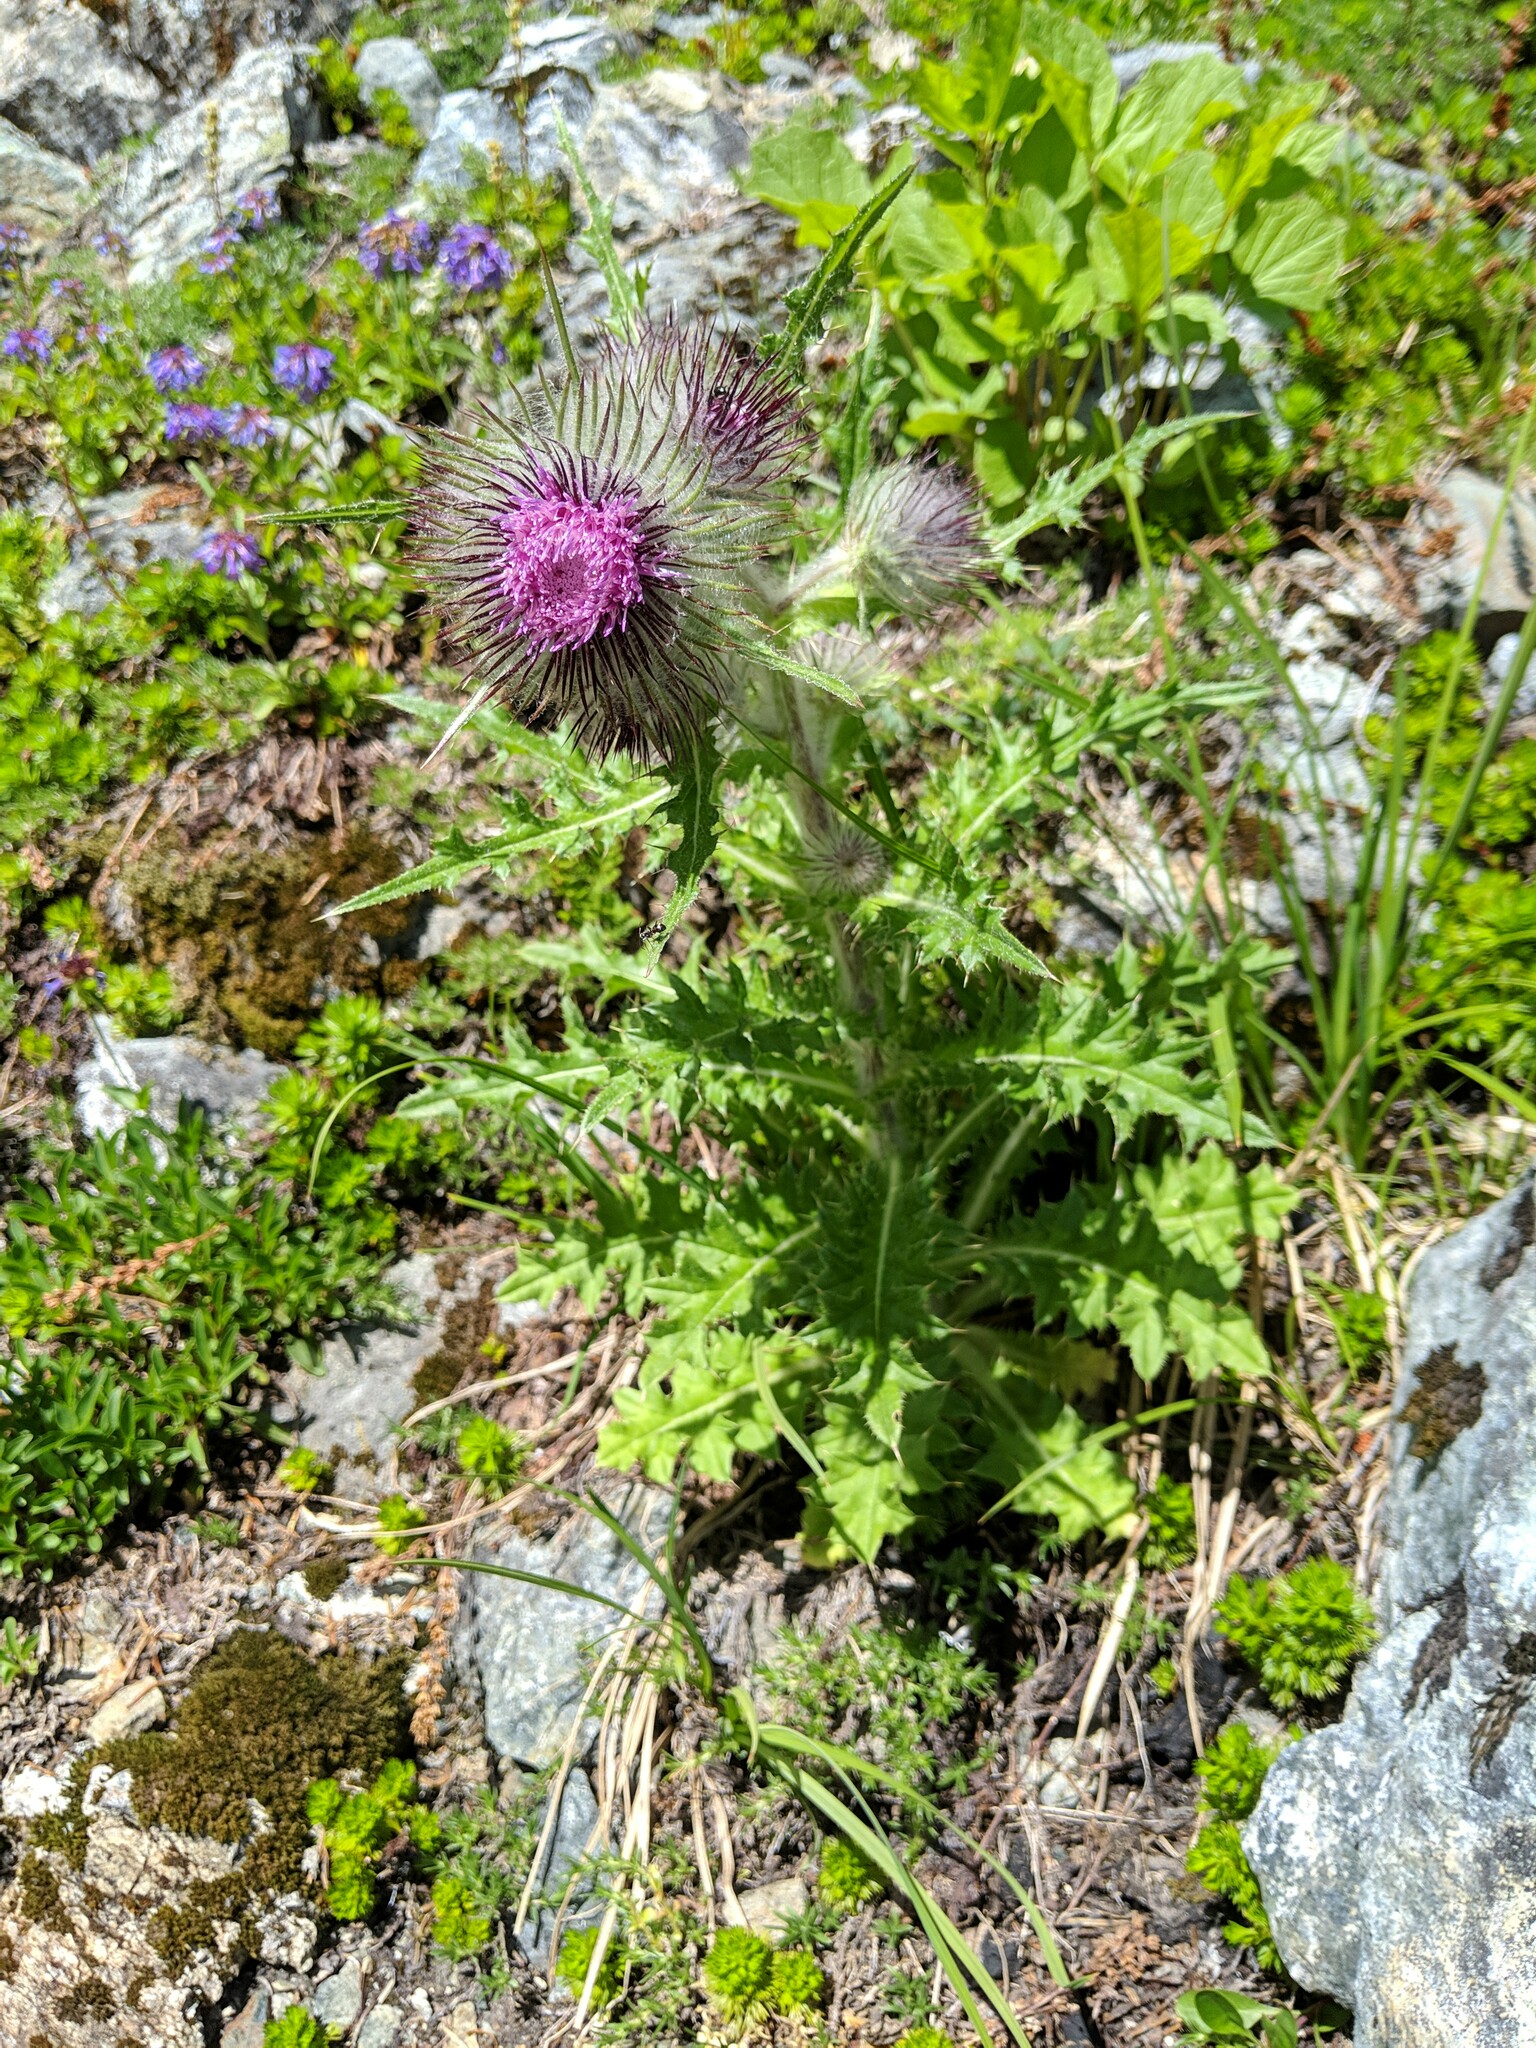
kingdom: Plantae
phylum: Tracheophyta
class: Magnoliopsida
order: Asterales
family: Asteraceae
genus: Cirsium
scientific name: Cirsium edule
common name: Indian thistle
